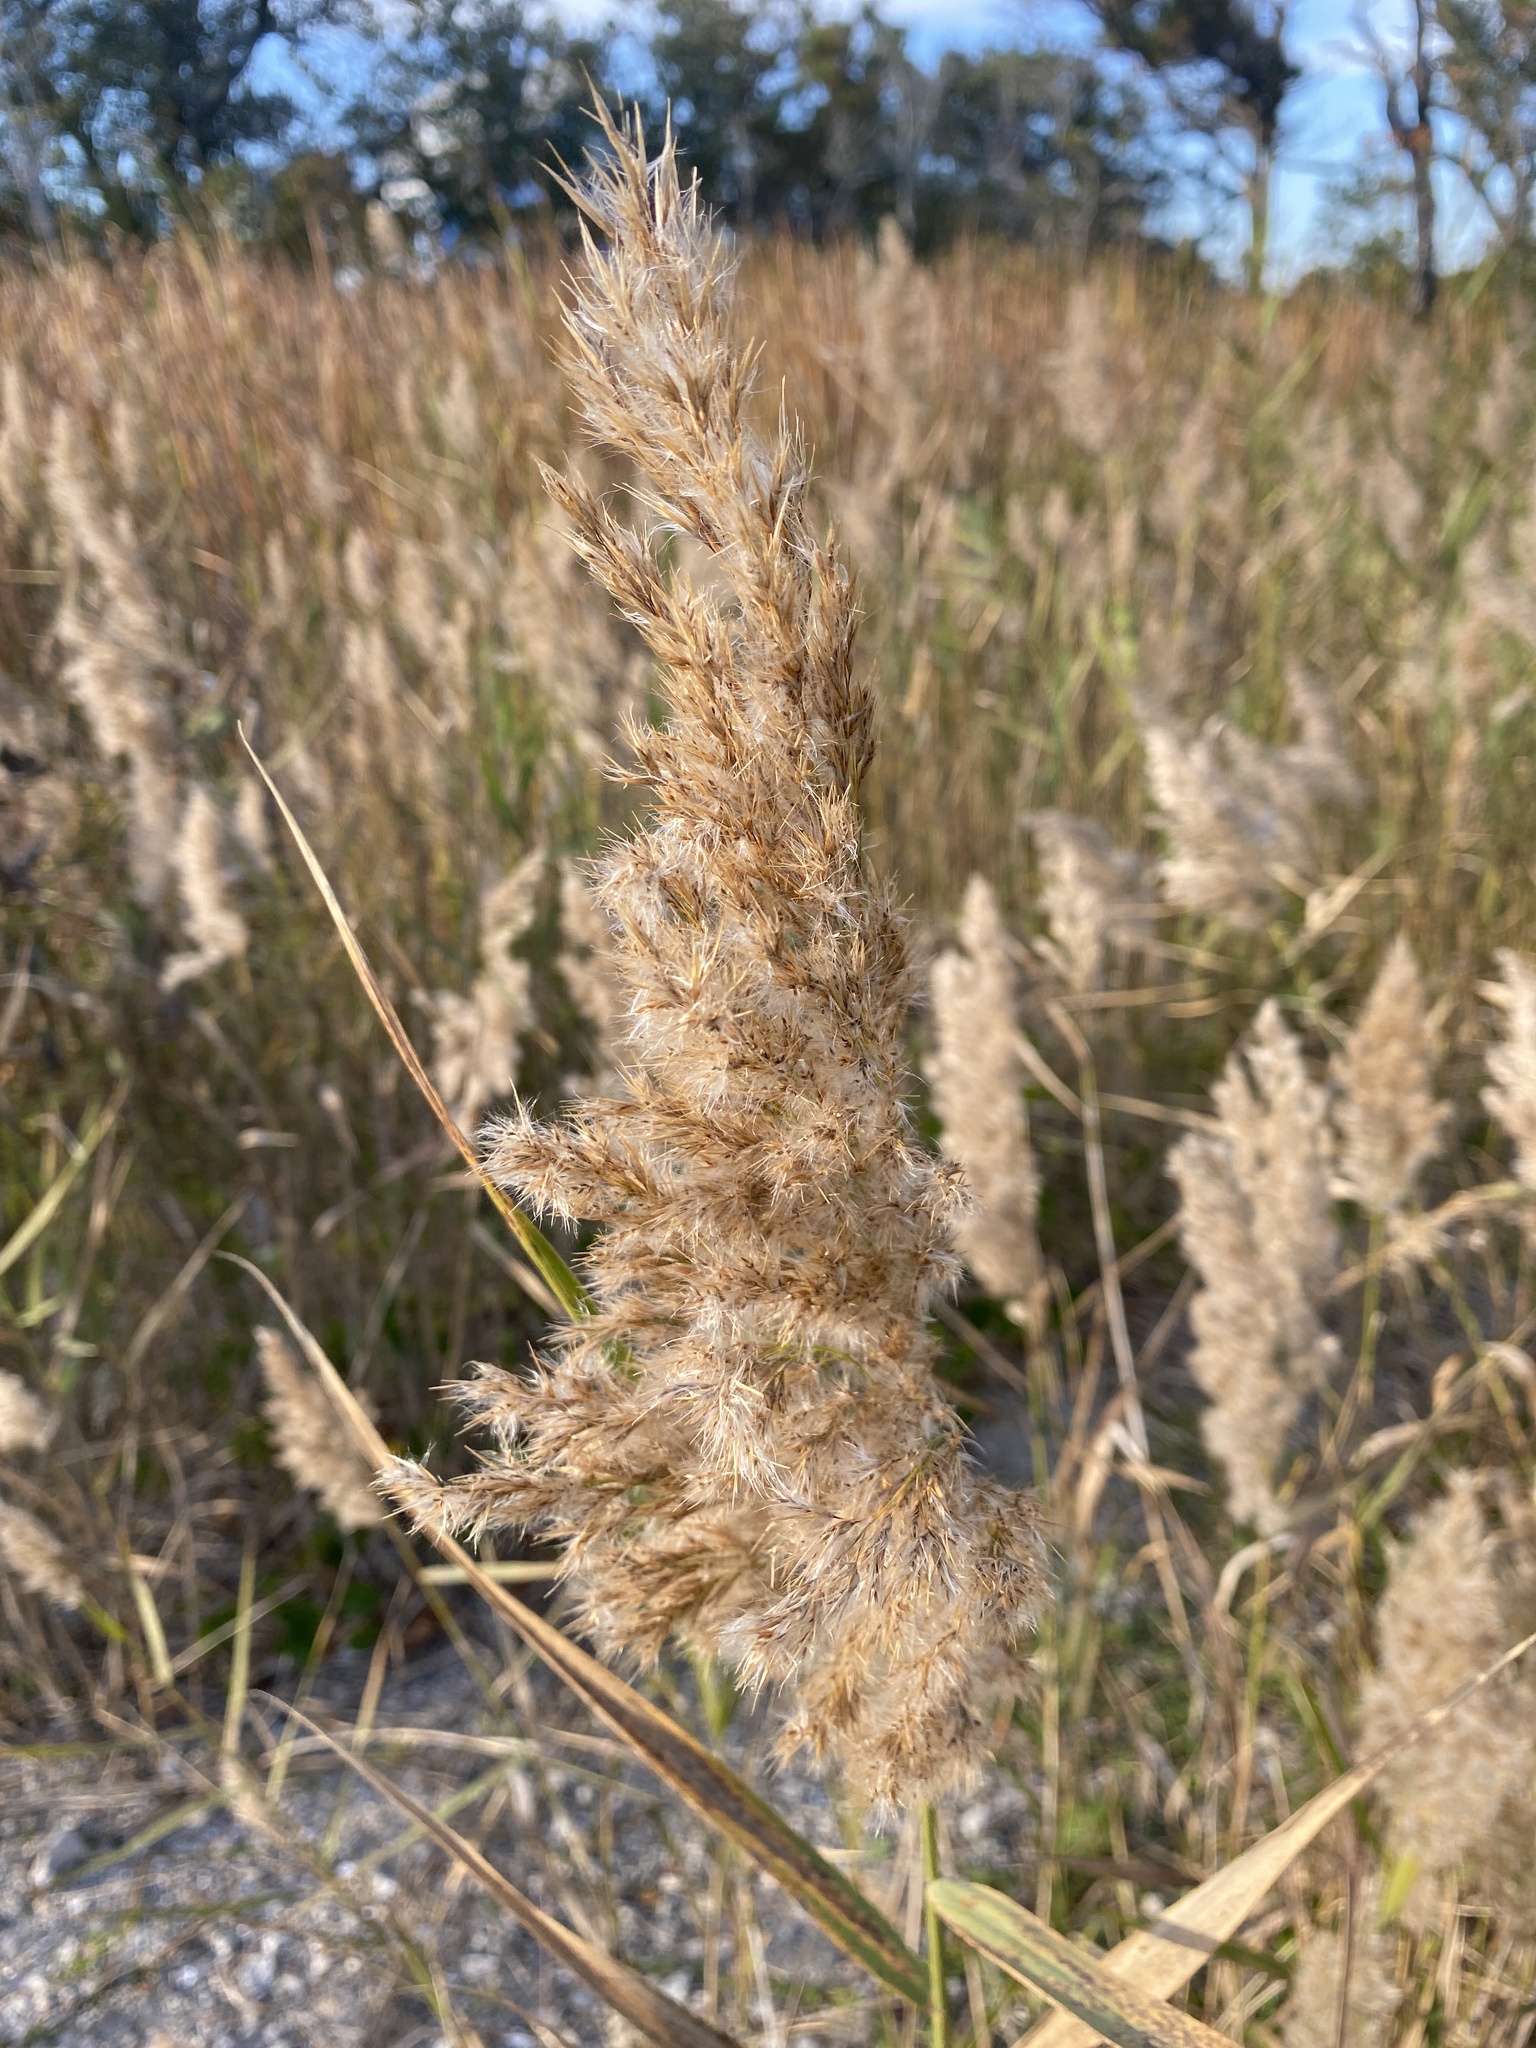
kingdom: Plantae
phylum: Tracheophyta
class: Liliopsida
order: Poales
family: Poaceae
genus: Phragmites
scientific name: Phragmites australis
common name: Common reed
